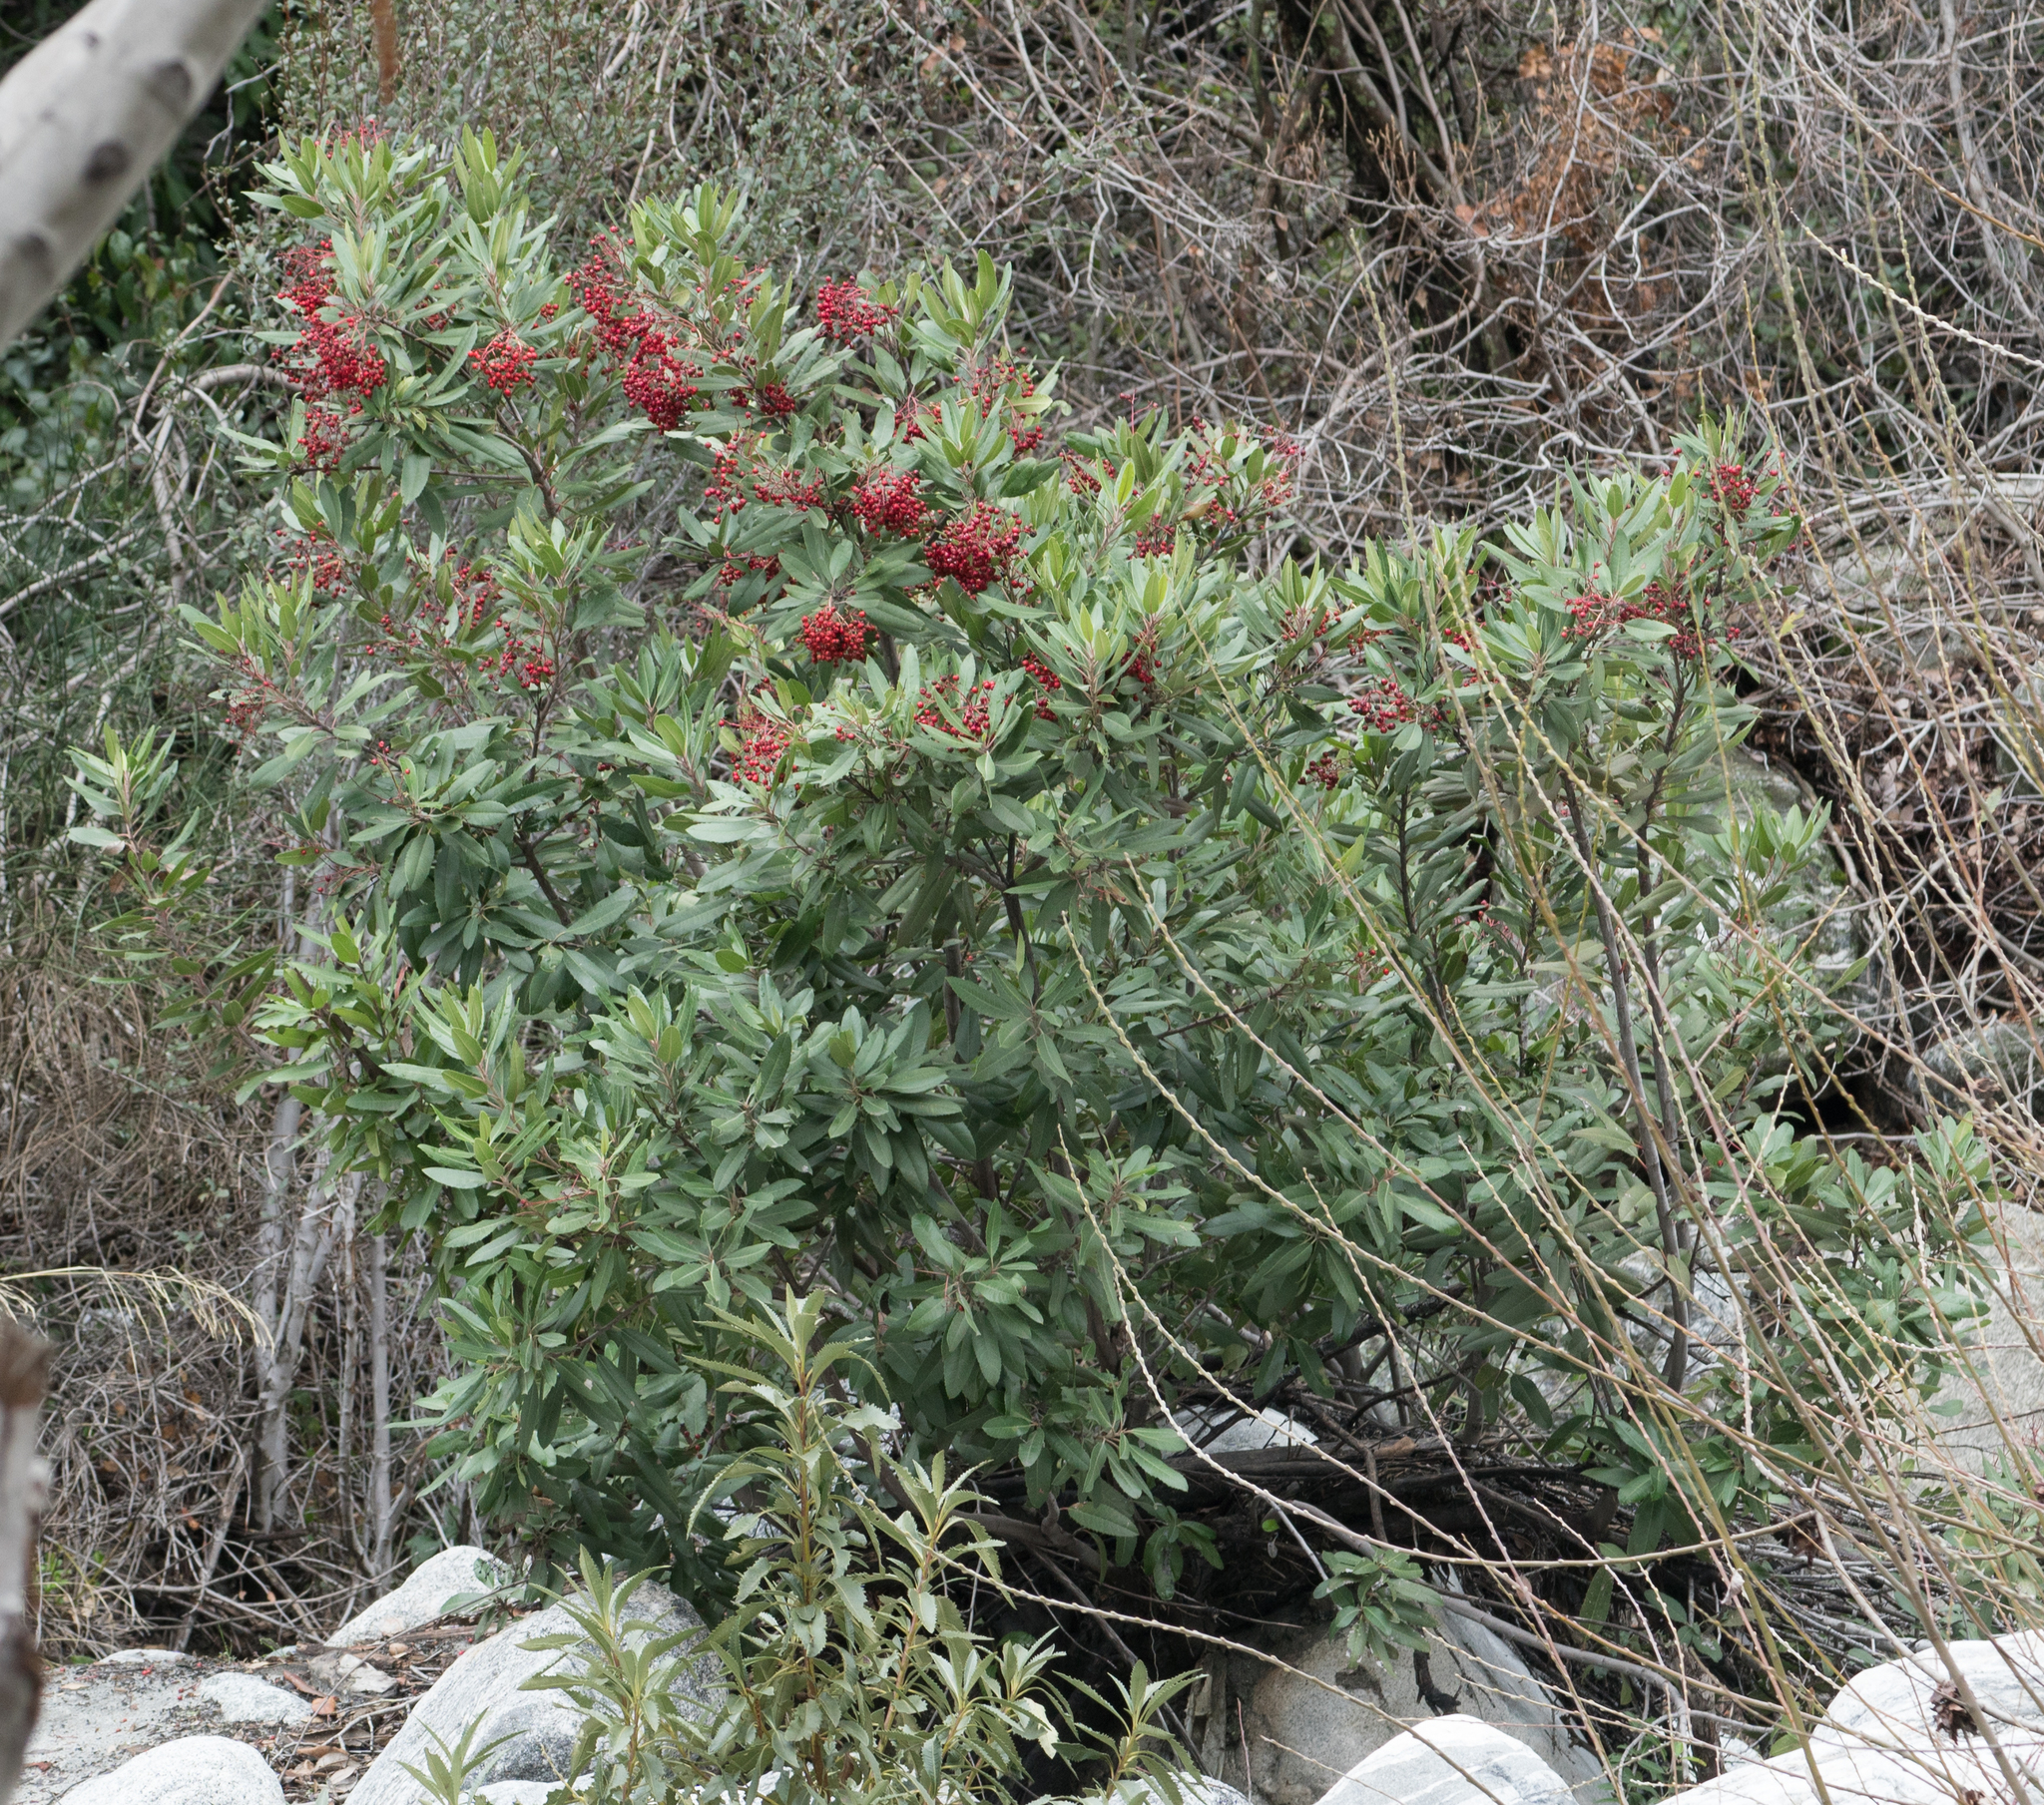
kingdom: Plantae
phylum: Tracheophyta
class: Magnoliopsida
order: Rosales
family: Rosaceae
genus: Heteromeles
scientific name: Heteromeles arbutifolia
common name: California-holly
